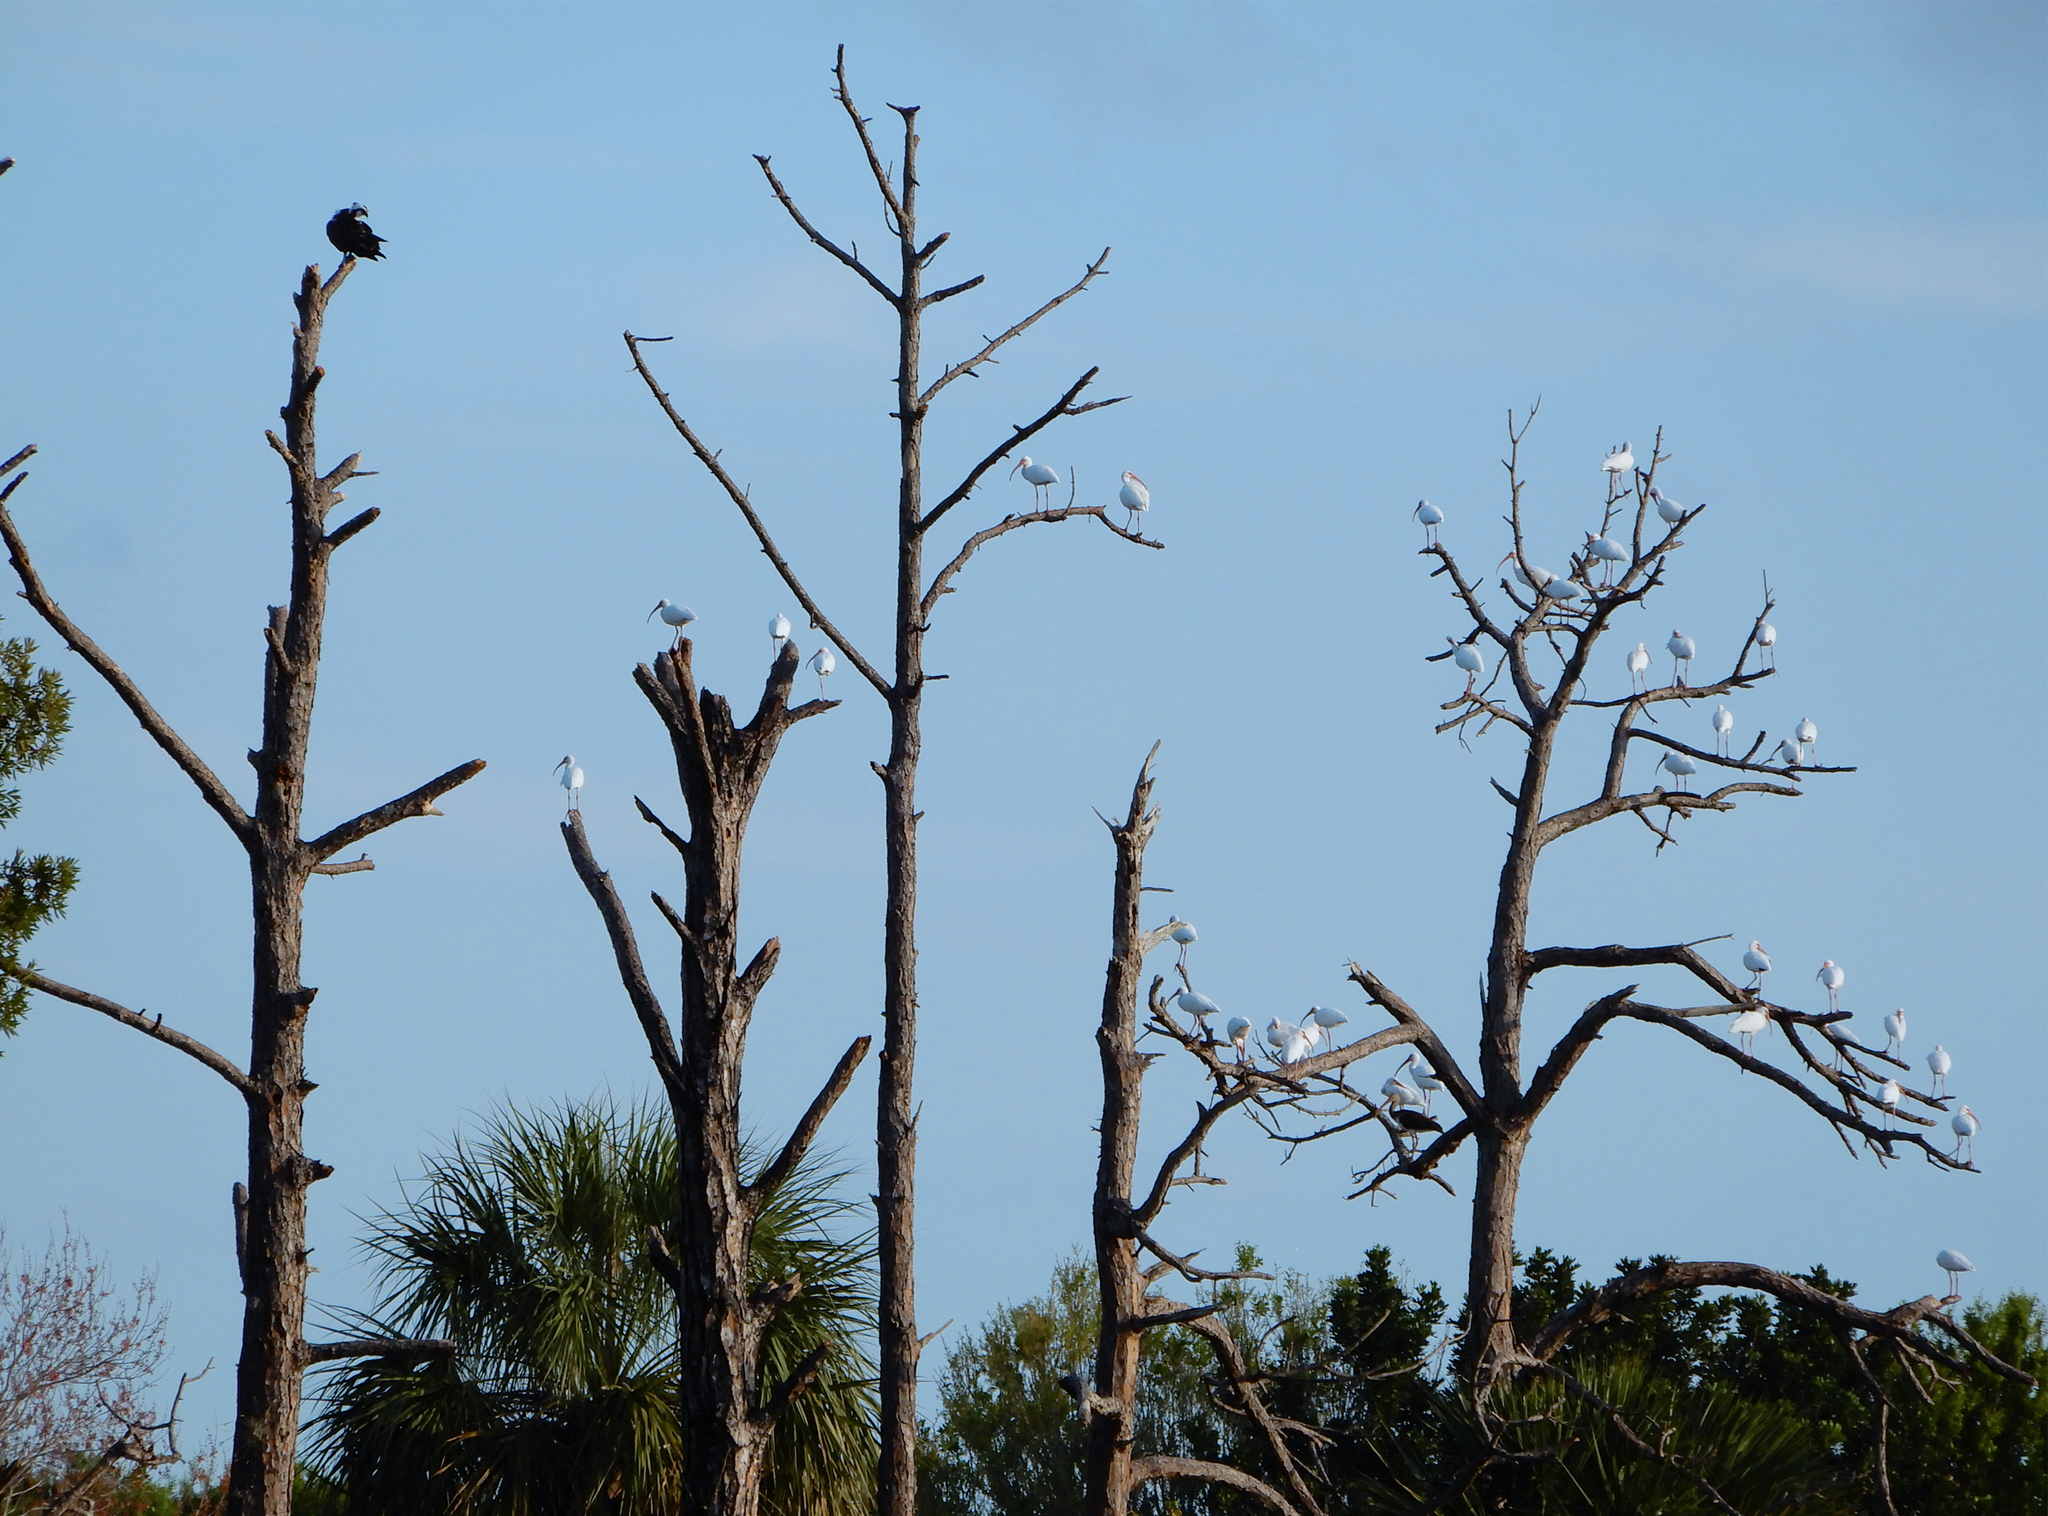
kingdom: Animalia
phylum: Chordata
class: Aves
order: Pelecaniformes
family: Threskiornithidae
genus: Eudocimus
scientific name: Eudocimus albus
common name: White ibis
